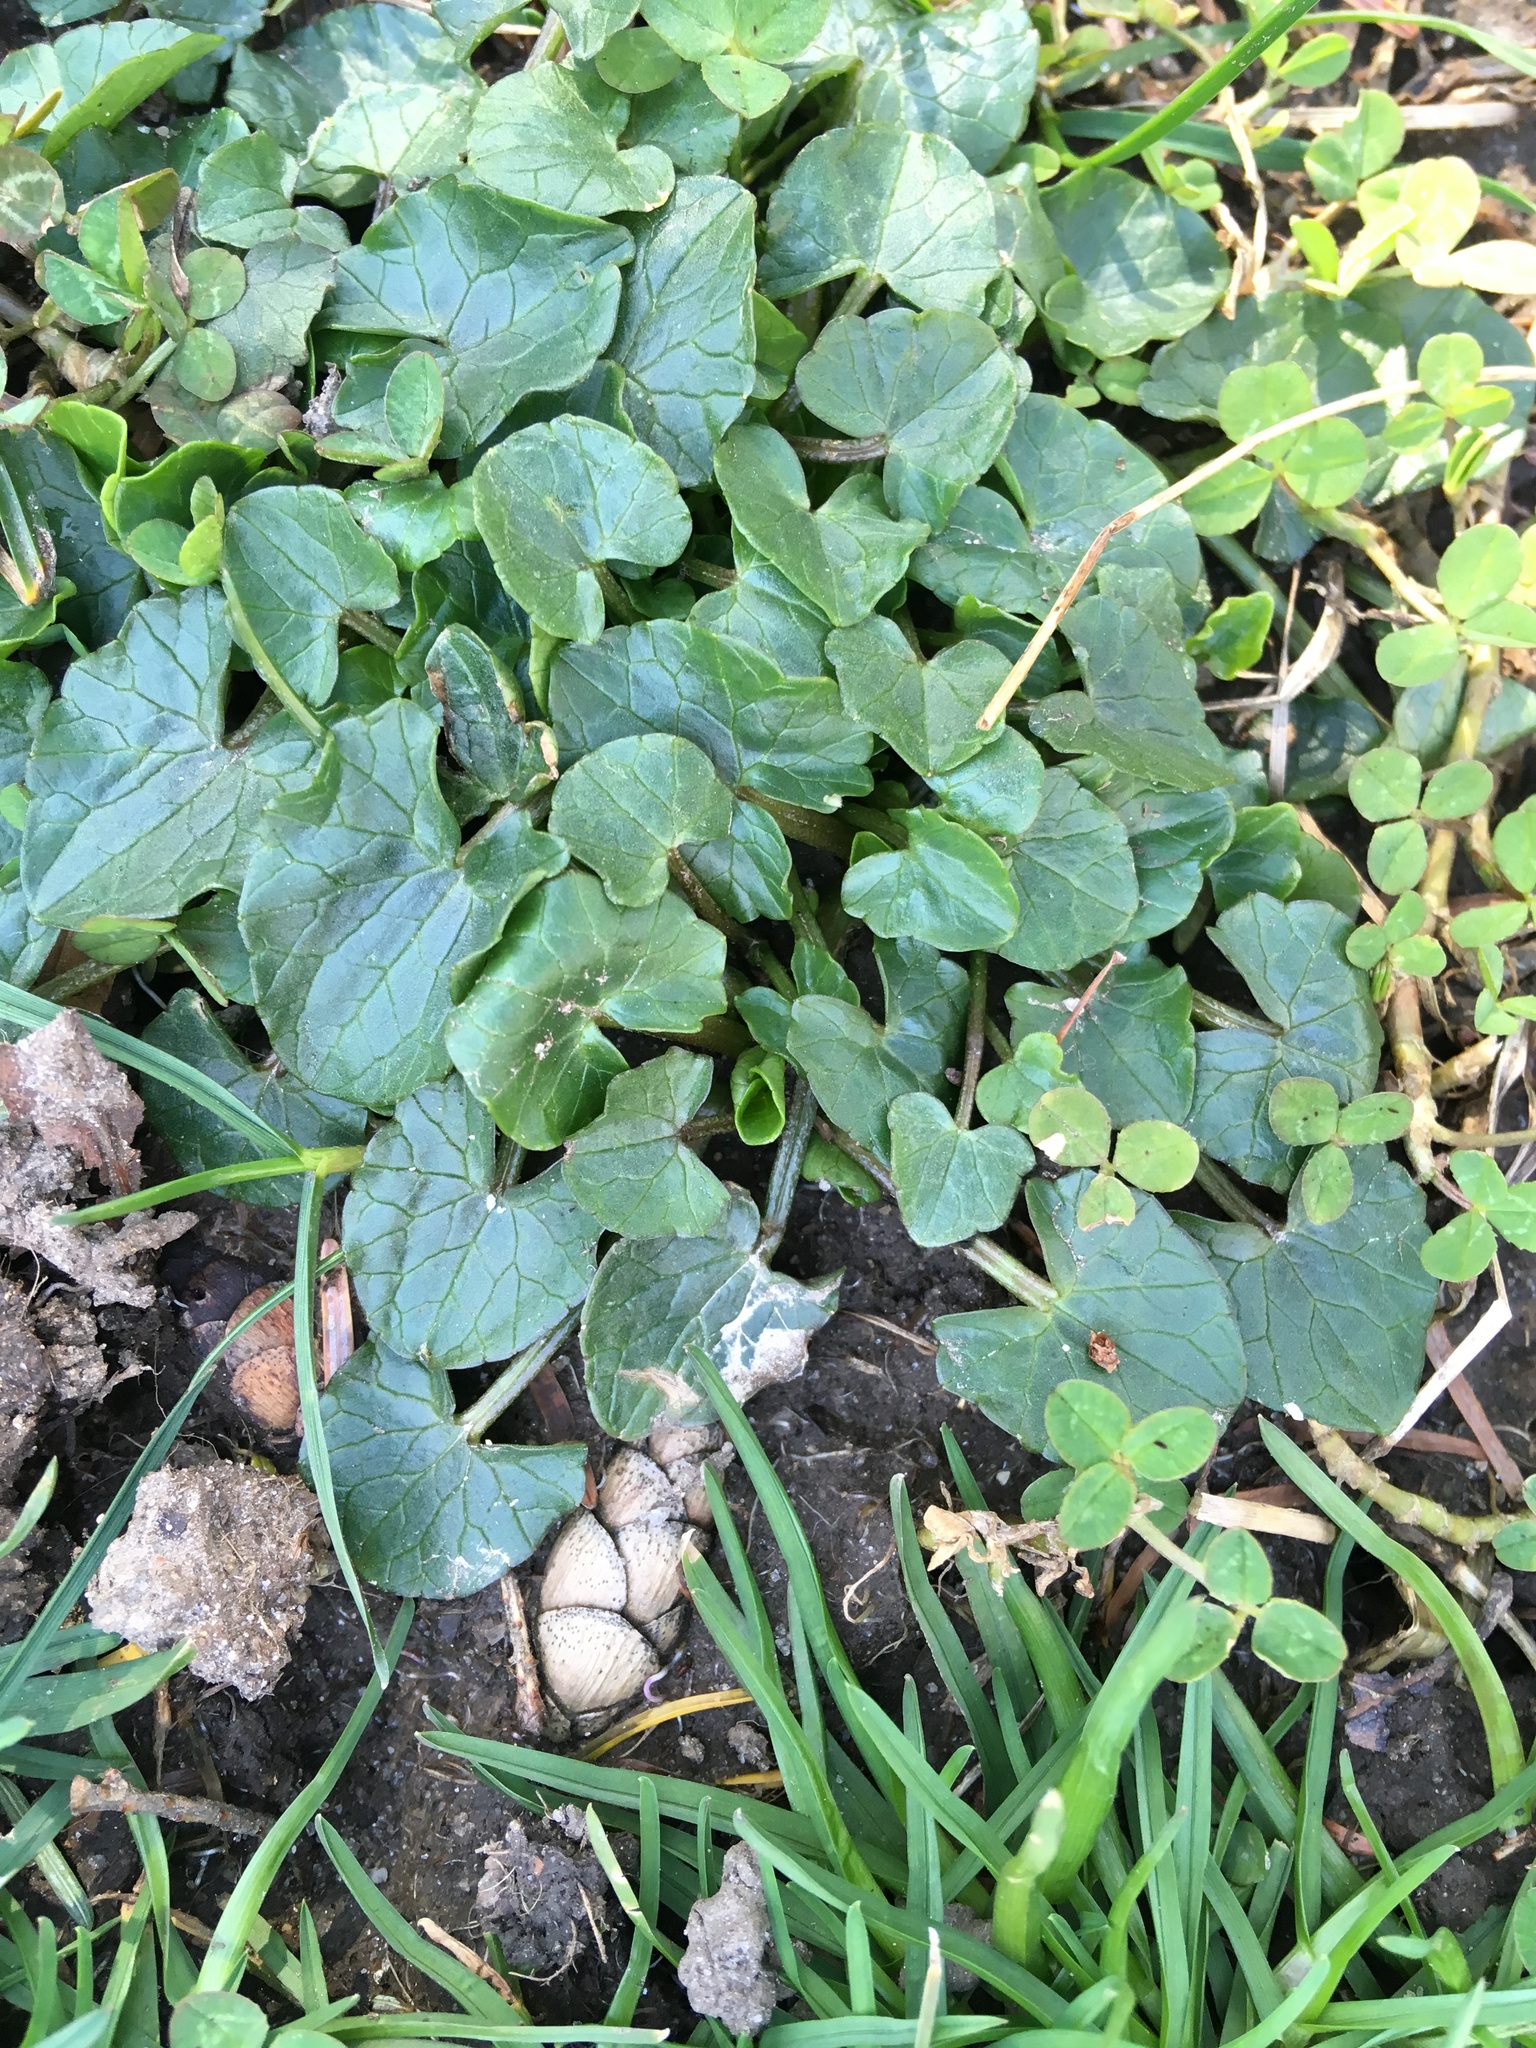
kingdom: Plantae
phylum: Tracheophyta
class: Magnoliopsida
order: Ranunculales
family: Ranunculaceae
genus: Ficaria
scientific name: Ficaria verna
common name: Lesser celandine
